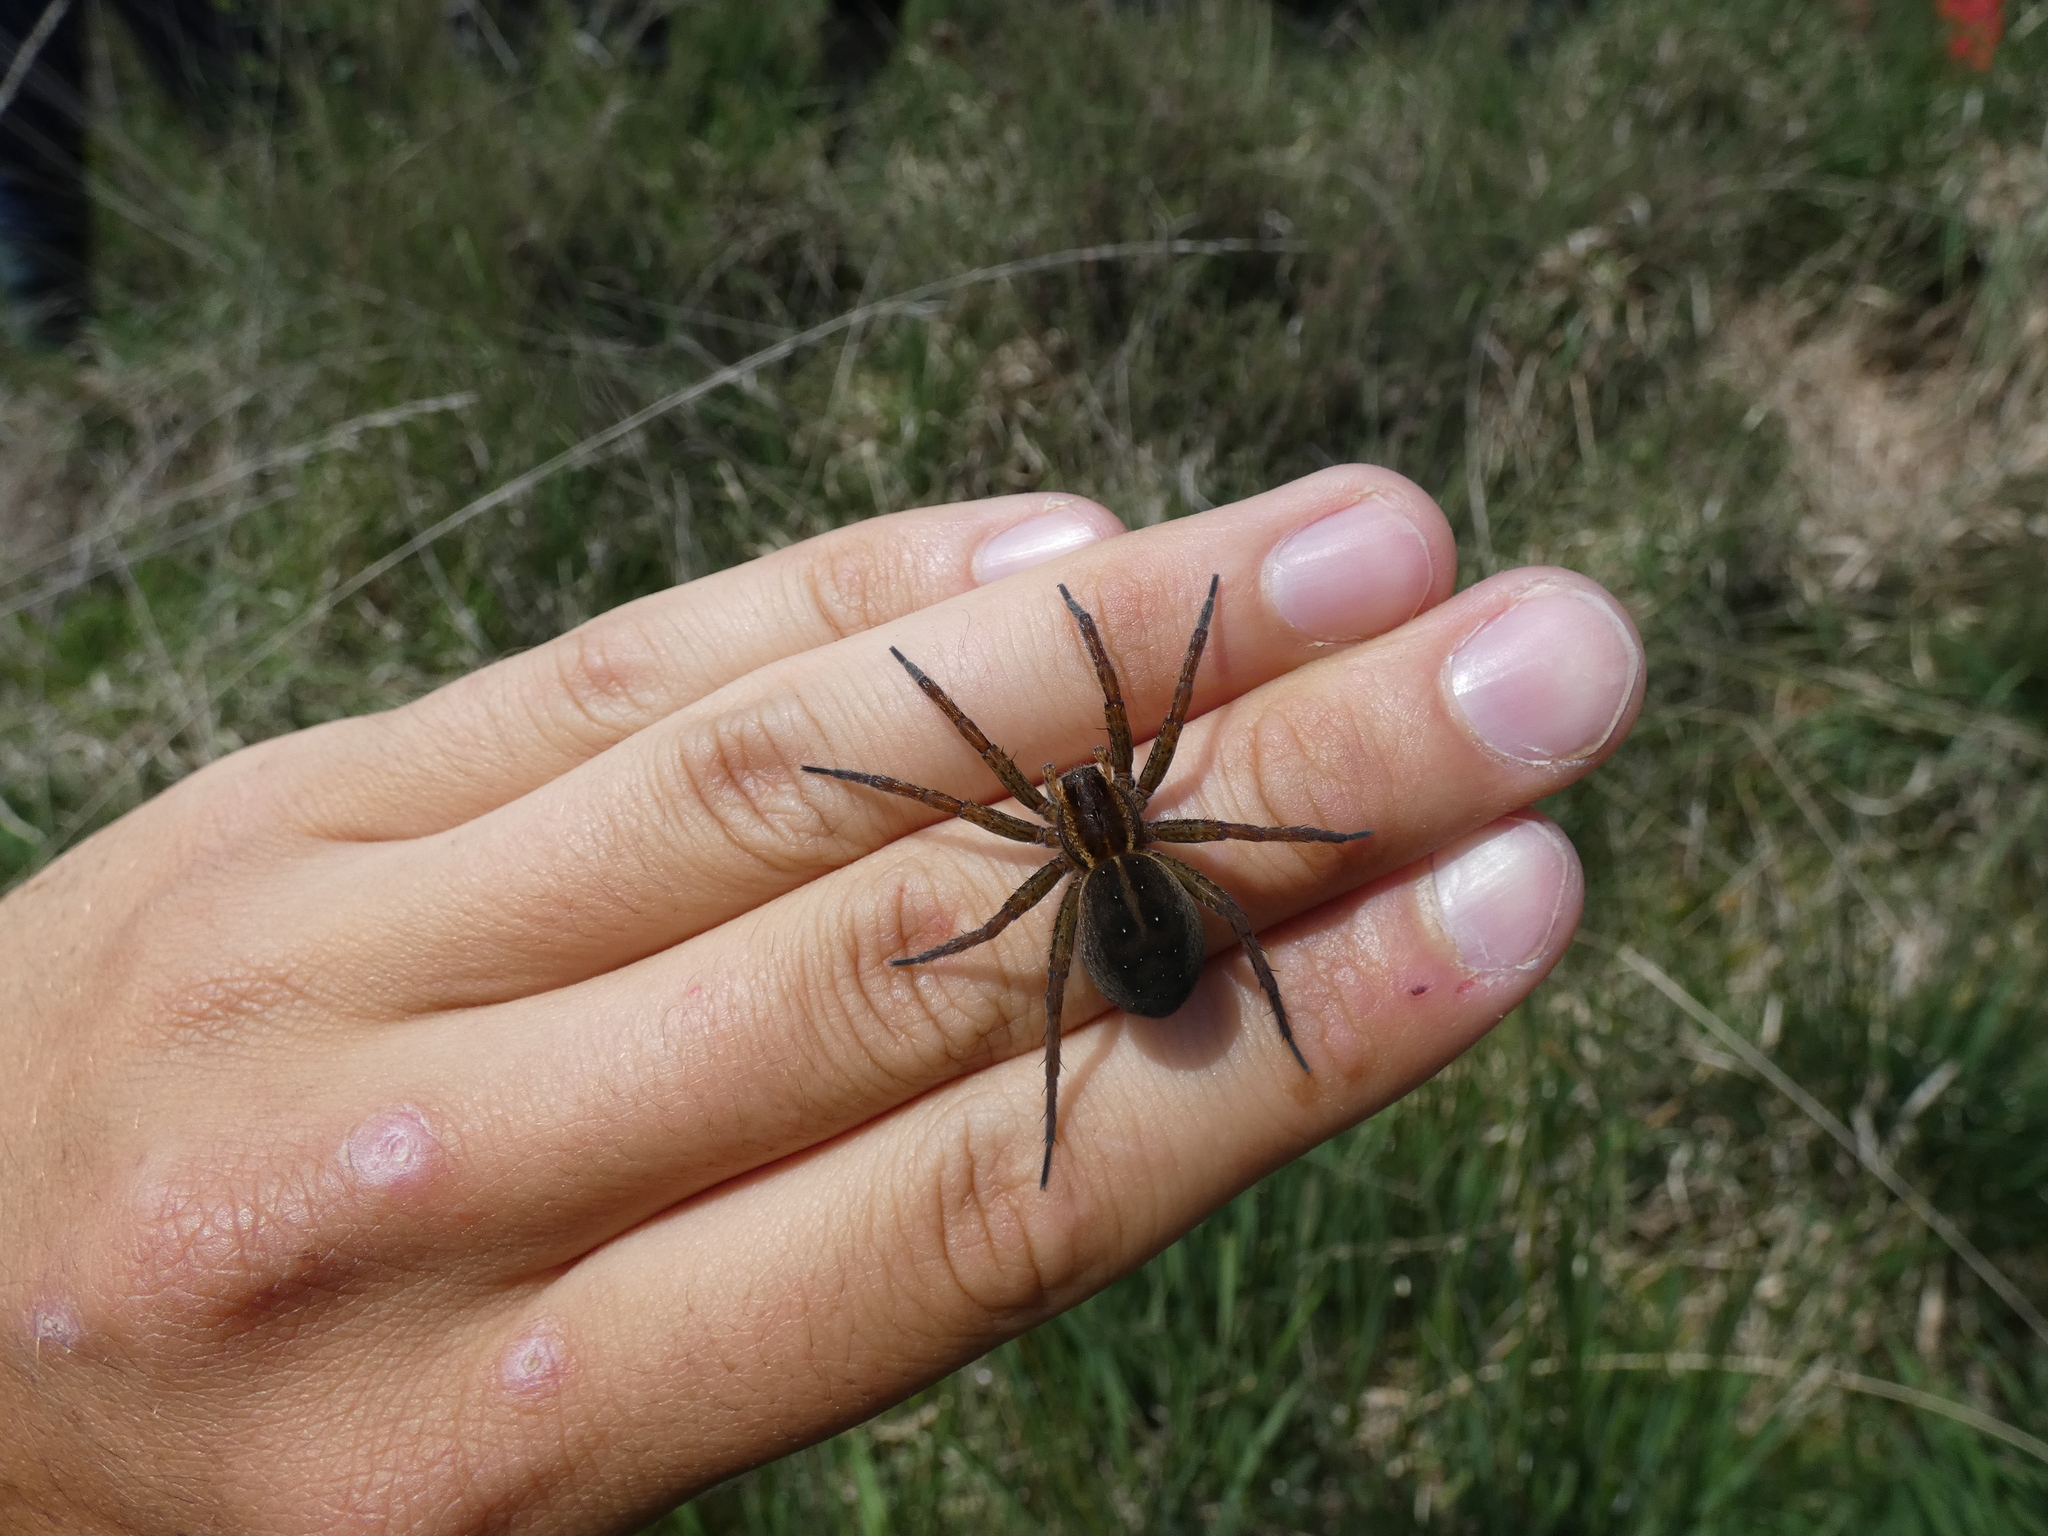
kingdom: Animalia
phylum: Arthropoda
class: Arachnida
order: Araneae
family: Pisauridae
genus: Dolomedes
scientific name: Dolomedes
